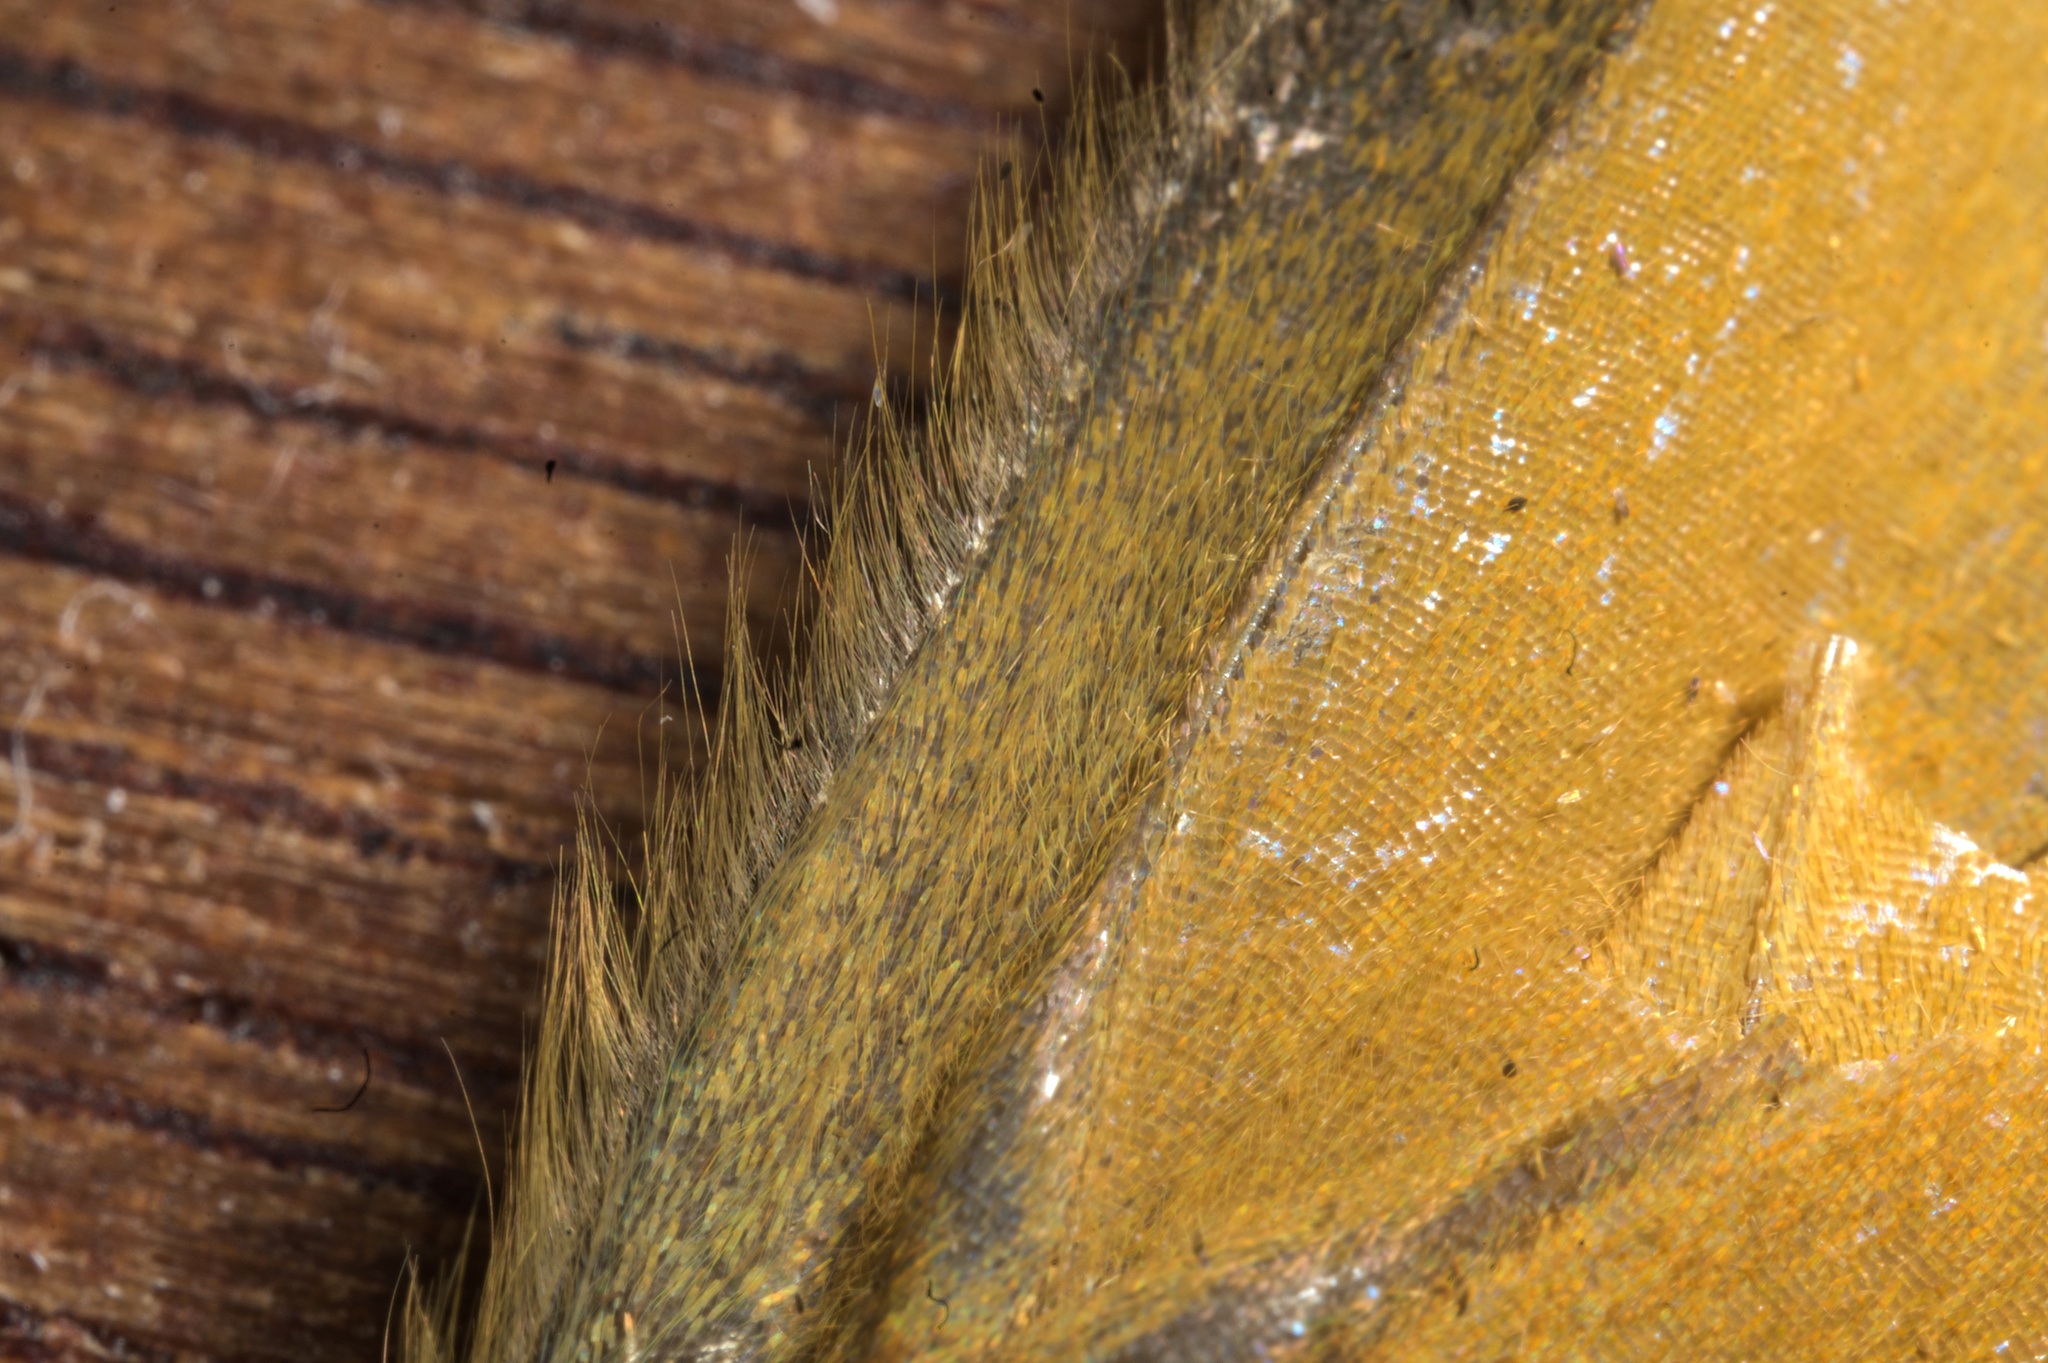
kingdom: Animalia
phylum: Arthropoda
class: Insecta
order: Lepidoptera
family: Nymphalidae
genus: Heteronympha
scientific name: Heteronympha merope
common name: Common brown
